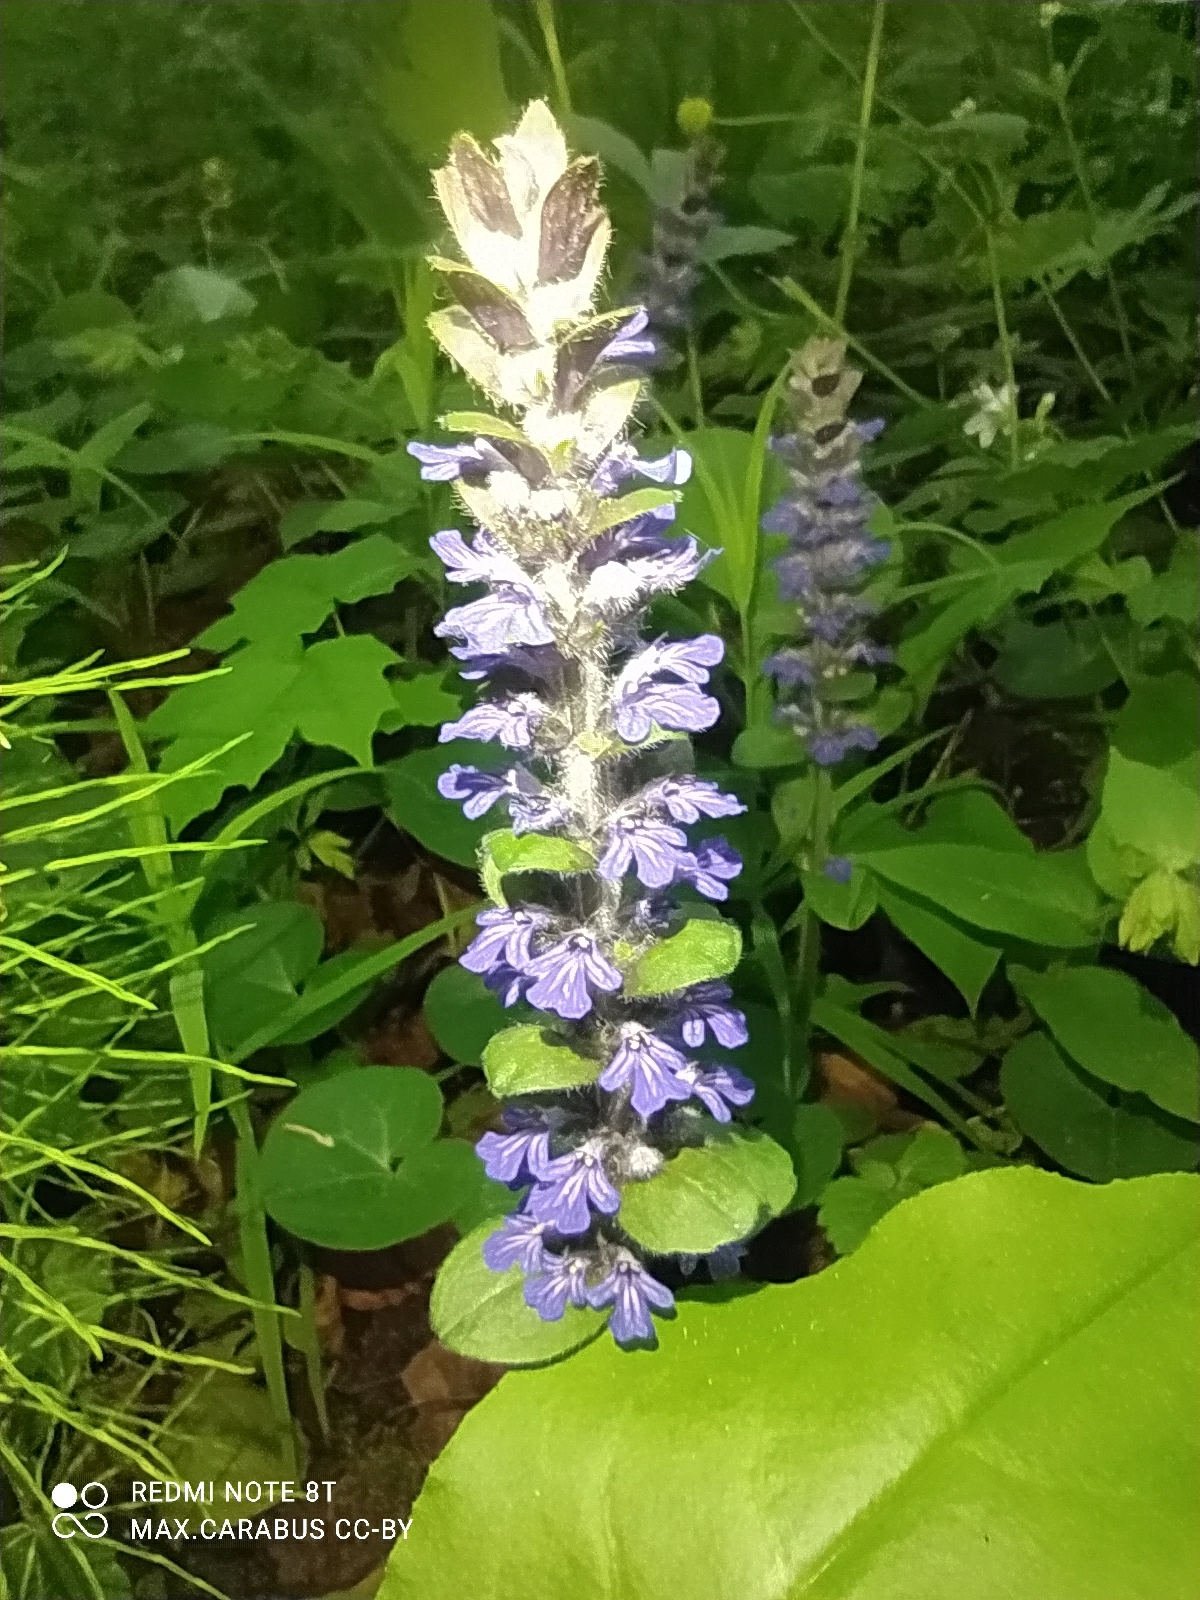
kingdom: Plantae
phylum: Tracheophyta
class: Magnoliopsida
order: Lamiales
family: Lamiaceae
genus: Ajuga
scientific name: Ajuga reptans
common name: Bugle
